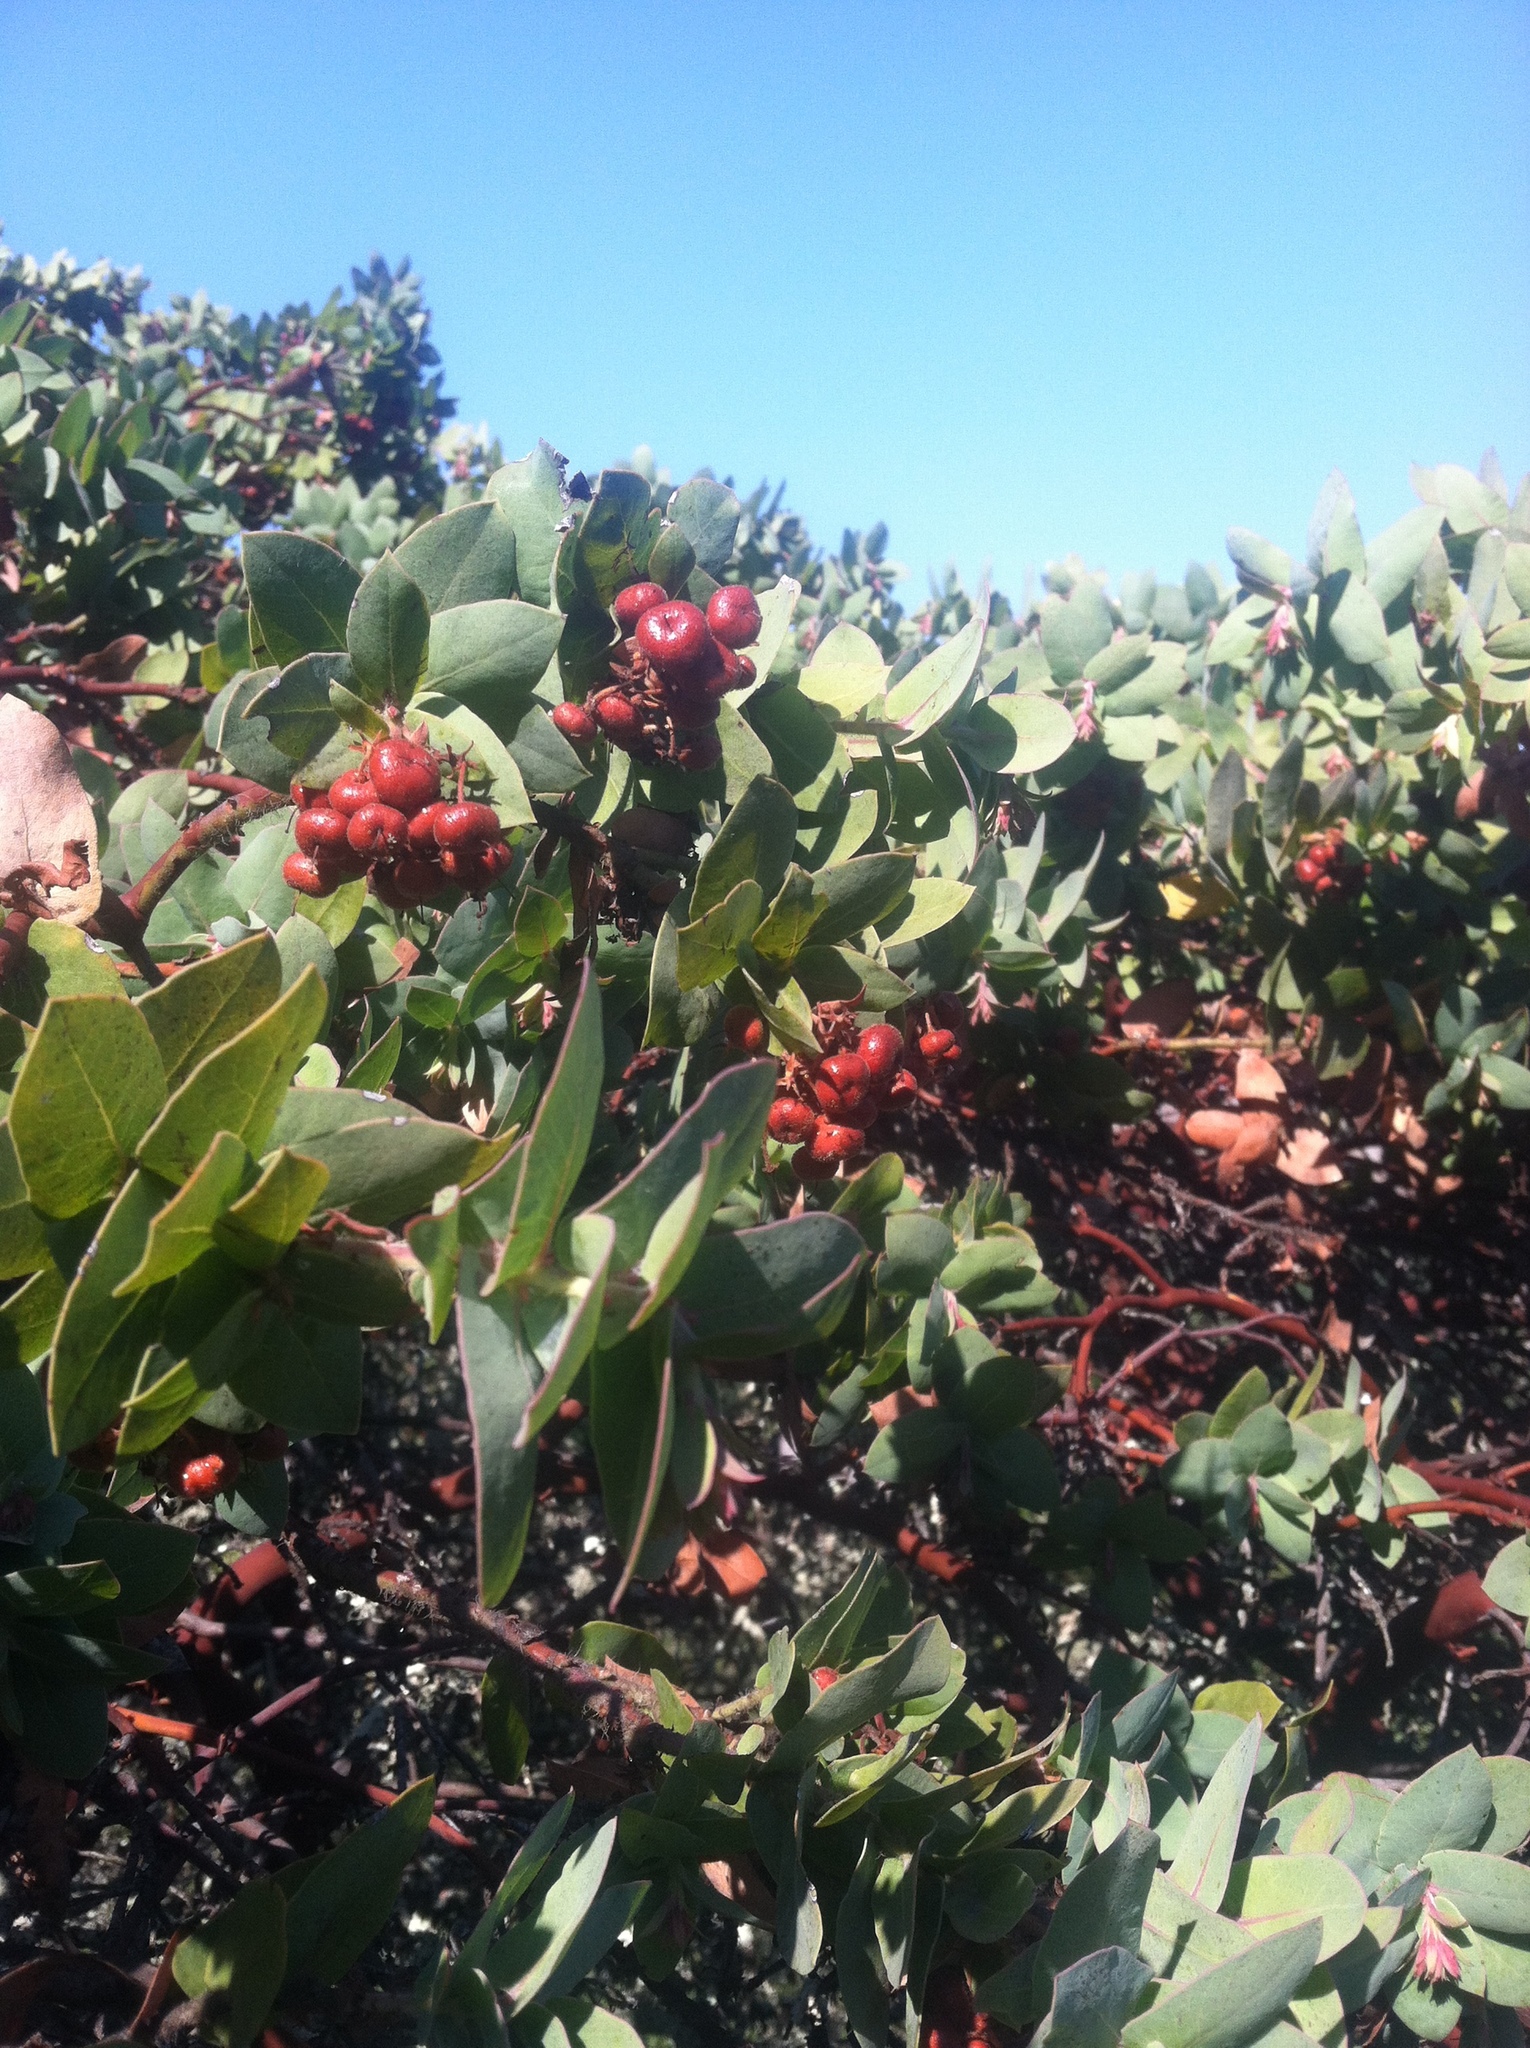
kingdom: Plantae
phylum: Tracheophyta
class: Magnoliopsida
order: Ericales
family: Ericaceae
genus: Arctostaphylos
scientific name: Arctostaphylos pallida
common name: Pallid manzanita
